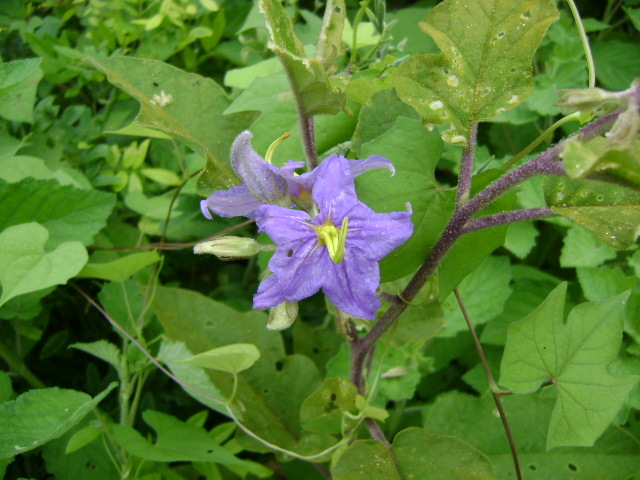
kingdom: Plantae
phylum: Tracheophyta
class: Magnoliopsida
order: Solanales
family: Solanaceae
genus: Solanum
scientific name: Solanum houstonii
